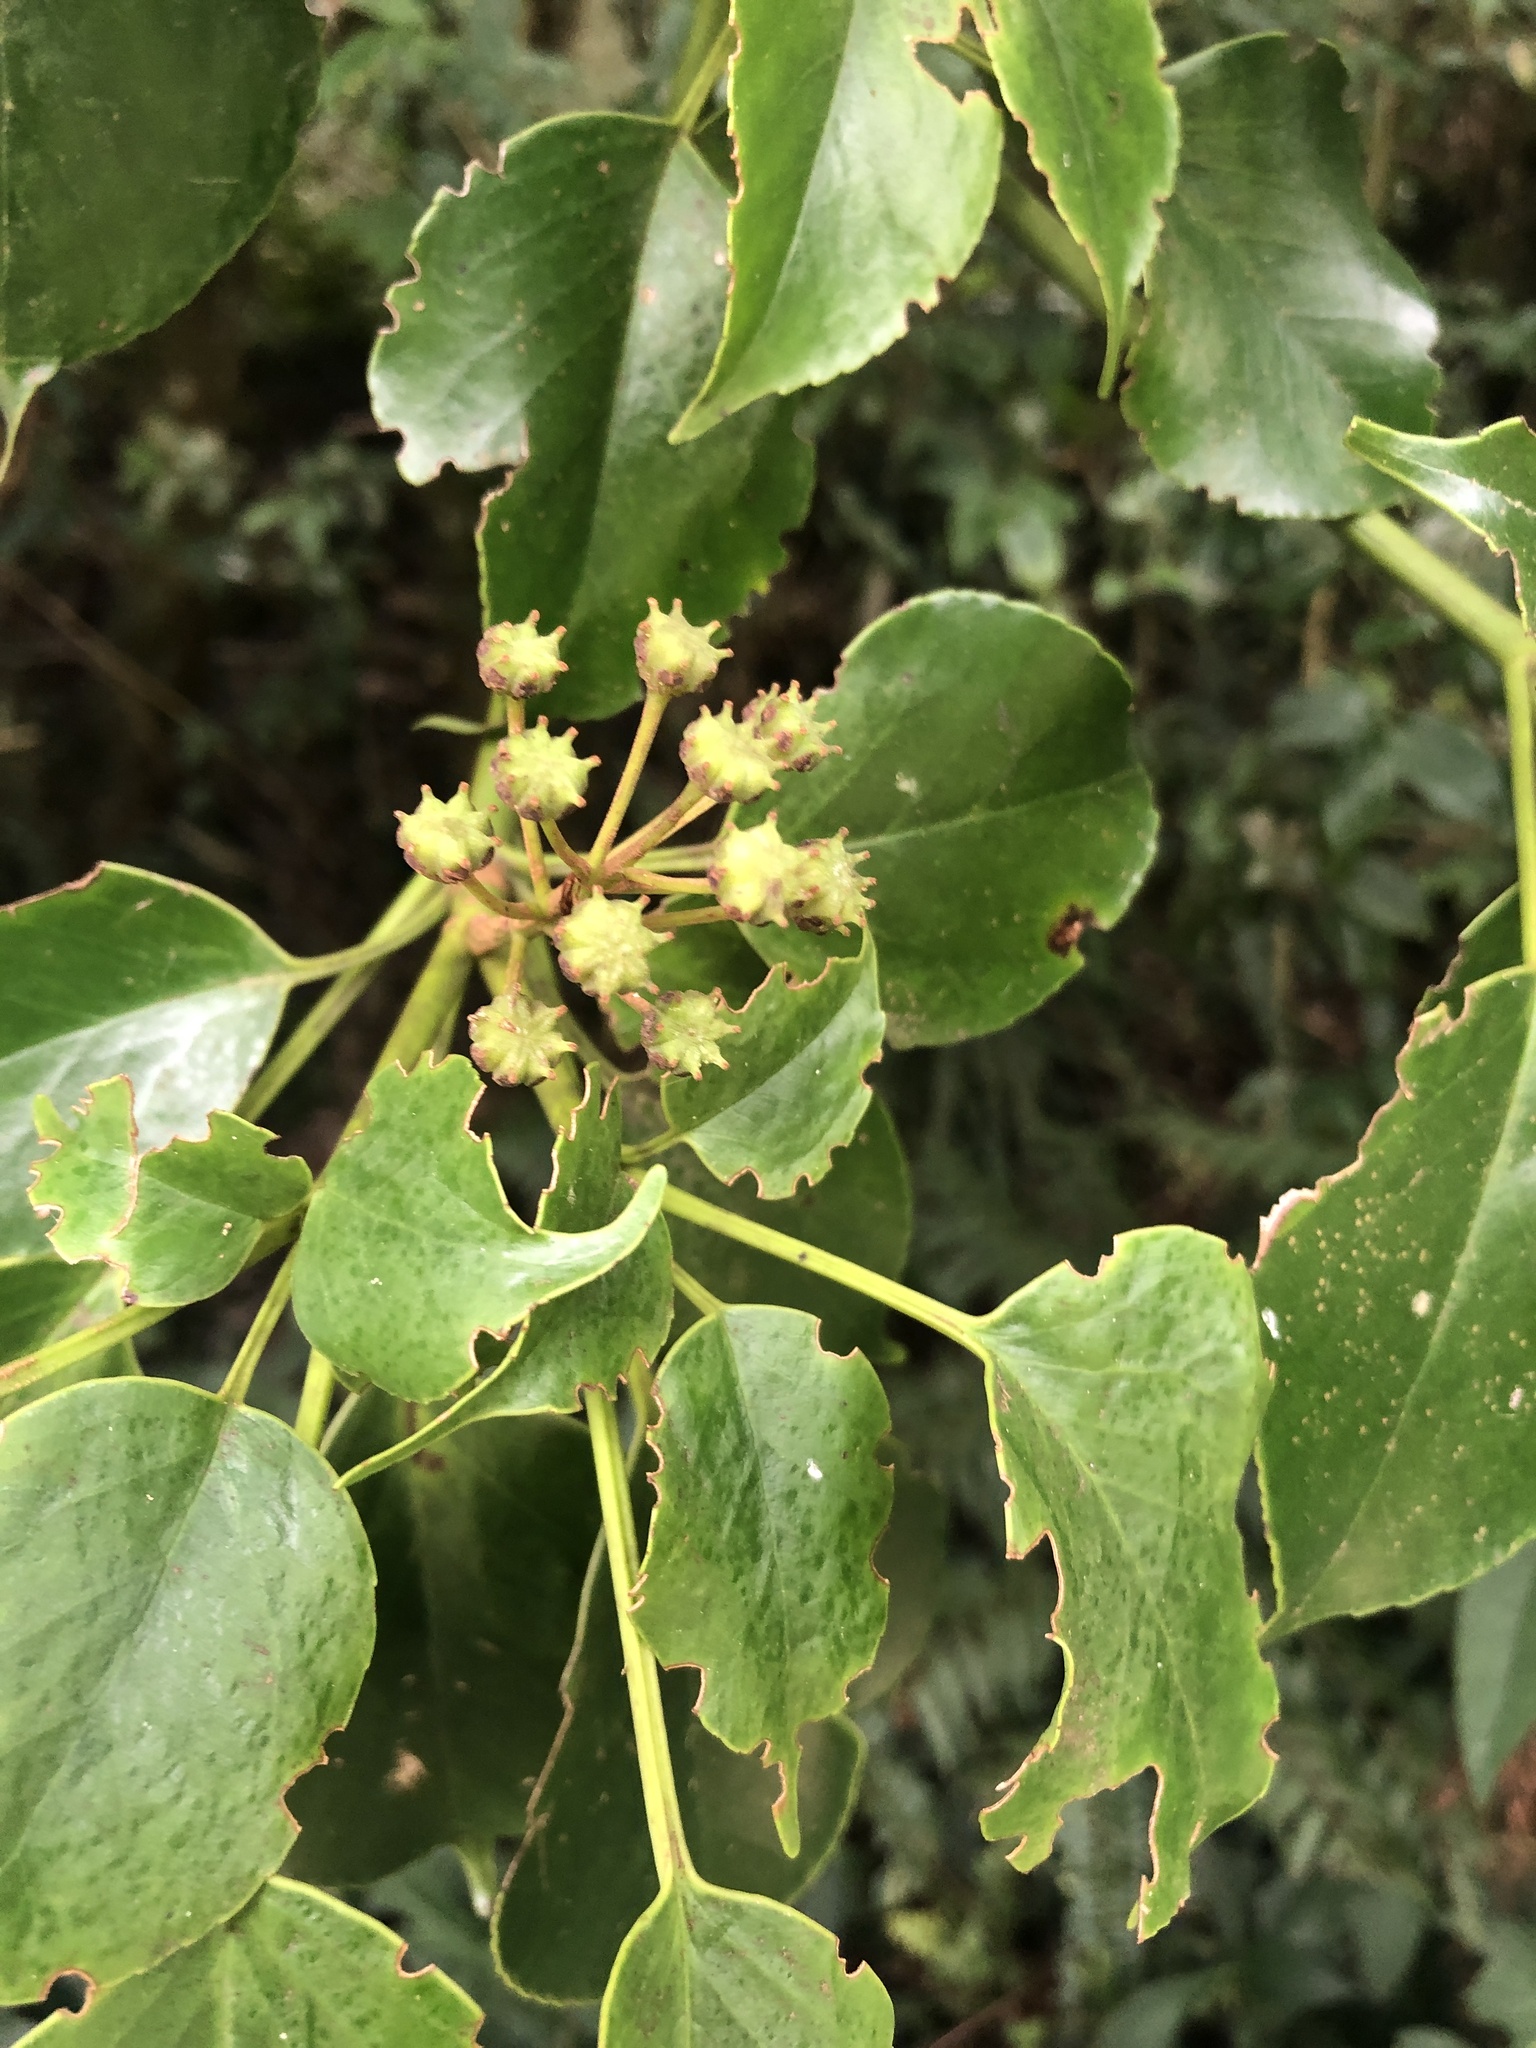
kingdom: Plantae
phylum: Tracheophyta
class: Magnoliopsida
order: Trochodendrales
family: Trochodendraceae
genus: Trochodendron
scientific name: Trochodendron aralioides
